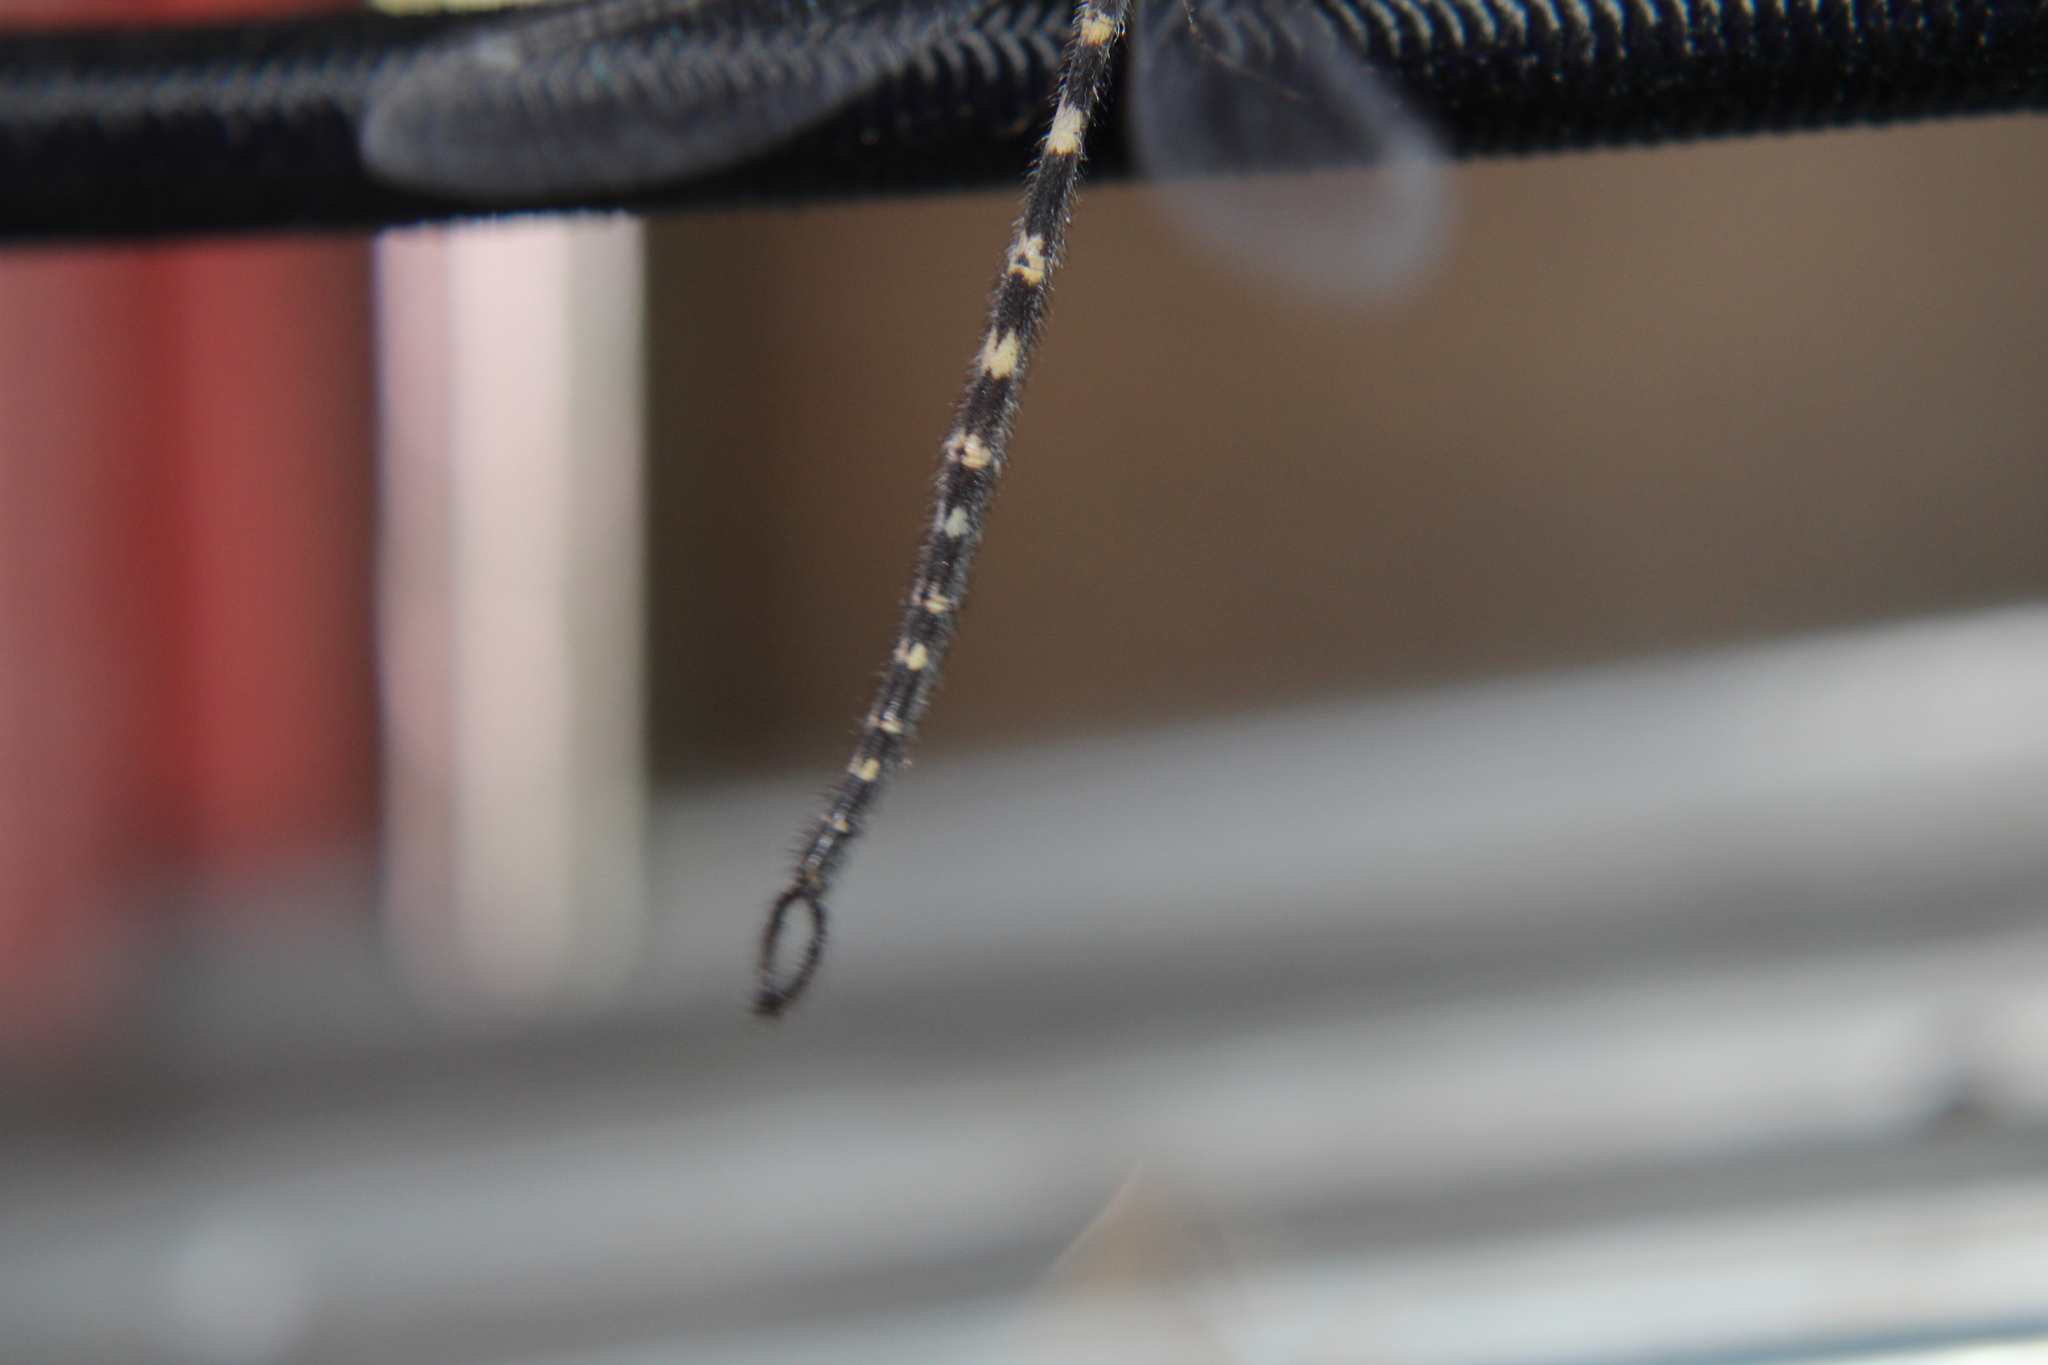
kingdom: Animalia
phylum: Arthropoda
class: Insecta
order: Neuroptera
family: Myrmeleontidae
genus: Brachynemurus
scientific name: Brachynemurus sackeni
